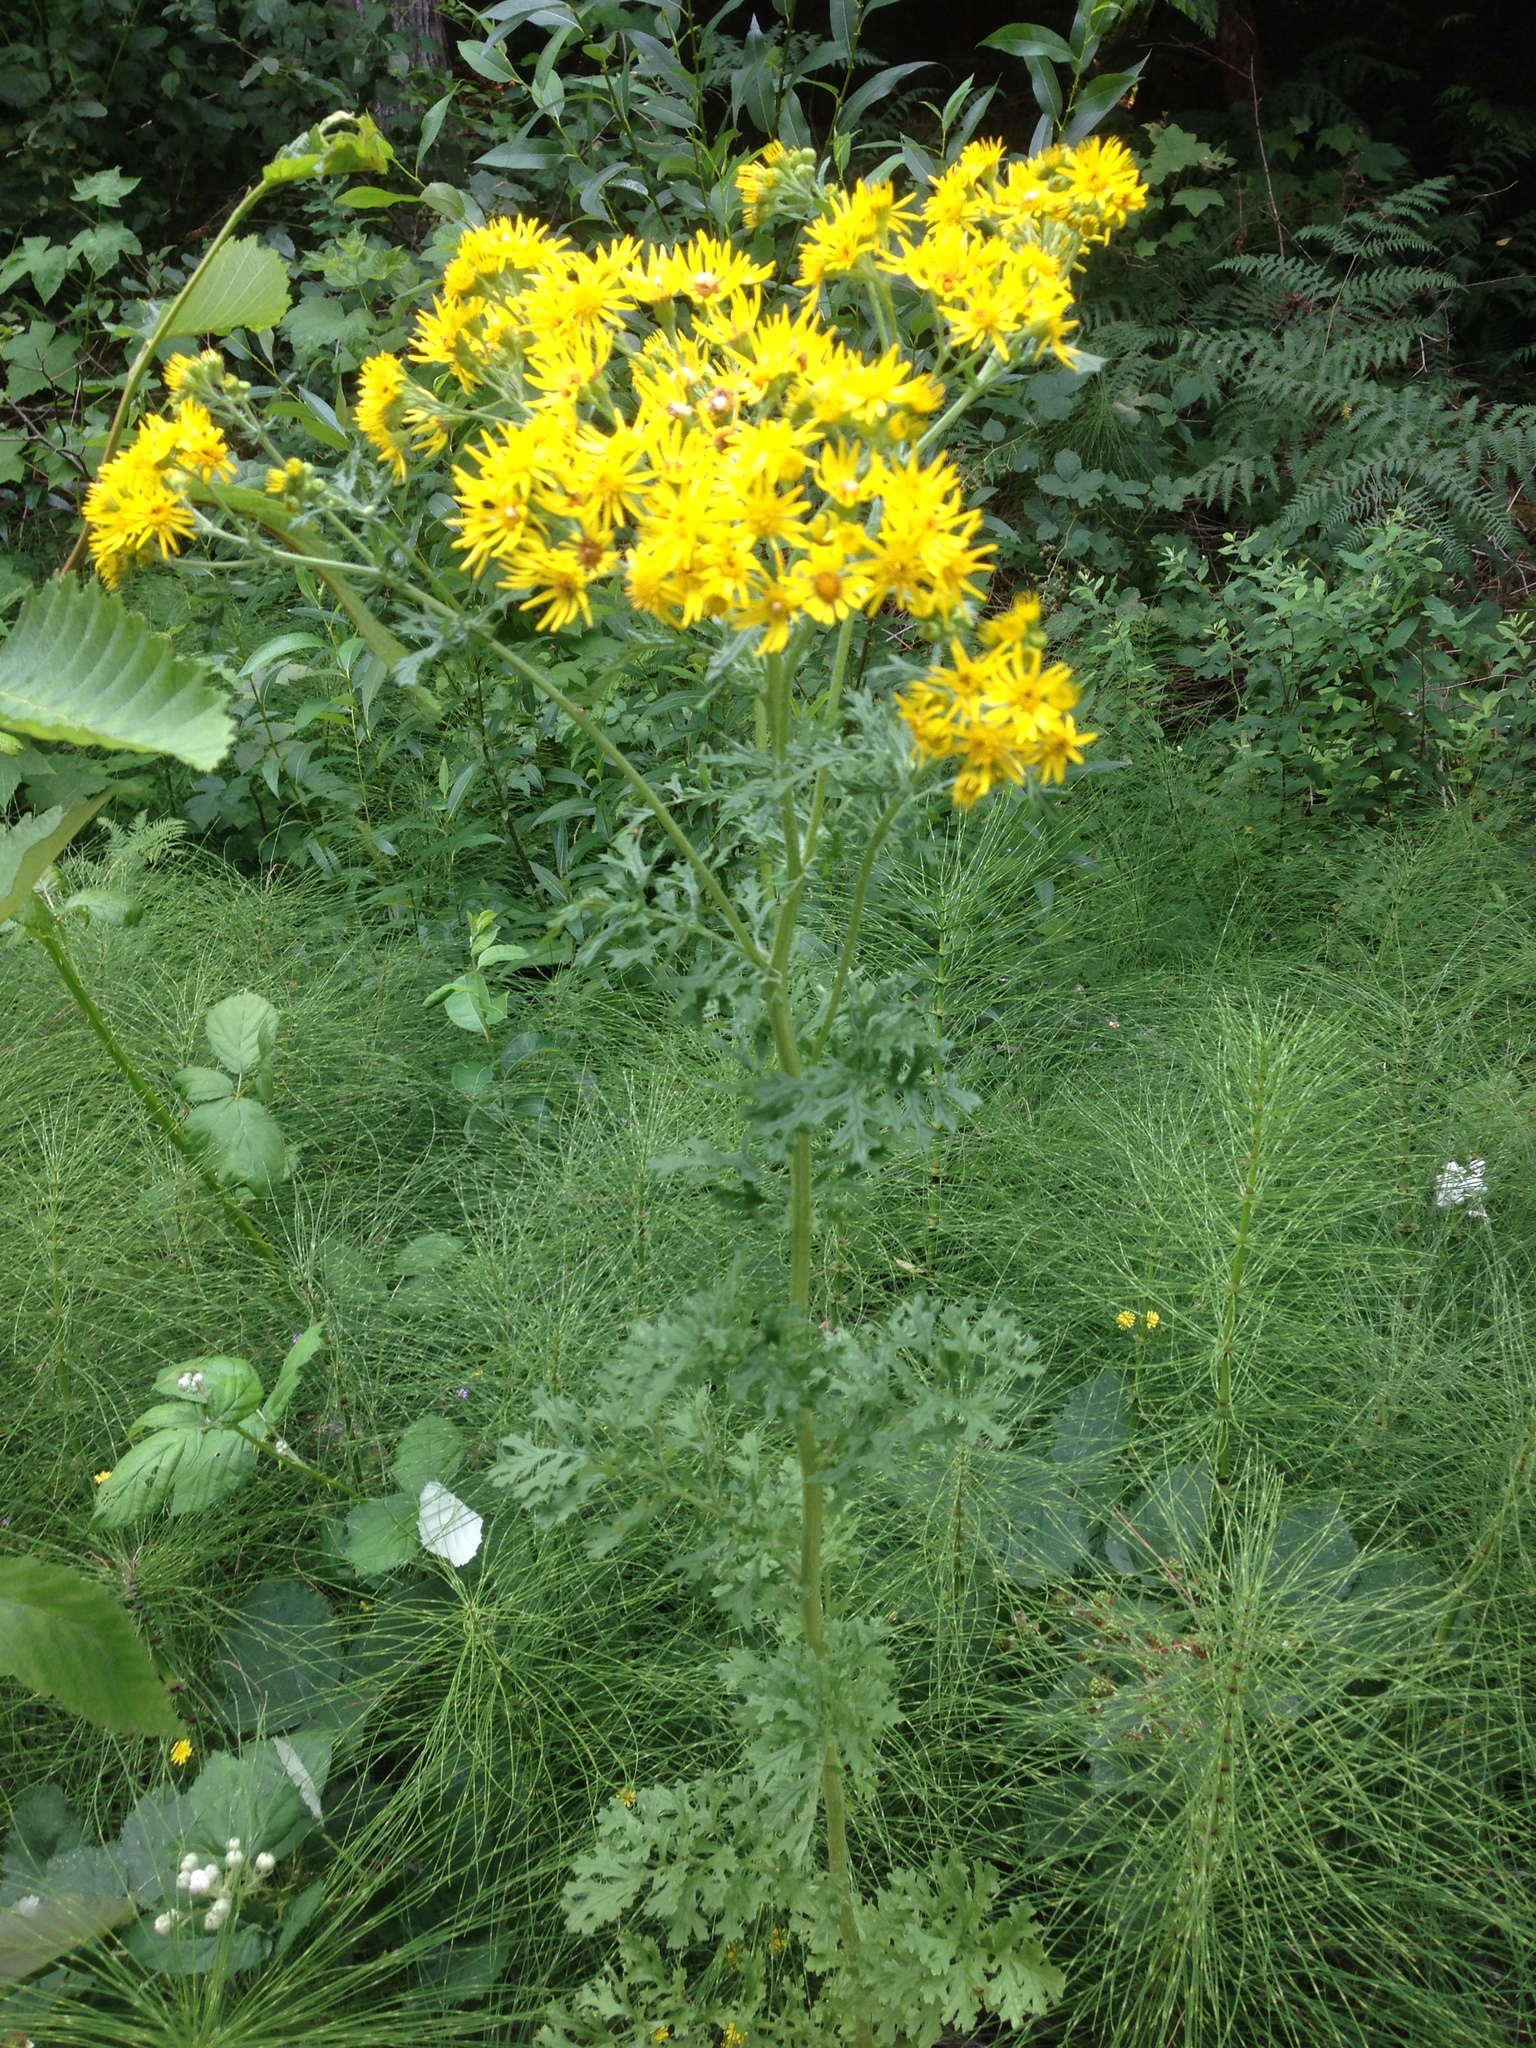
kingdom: Plantae
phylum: Tracheophyta
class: Magnoliopsida
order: Asterales
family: Asteraceae
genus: Jacobaea
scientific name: Jacobaea vulgaris
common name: Stinking willie
